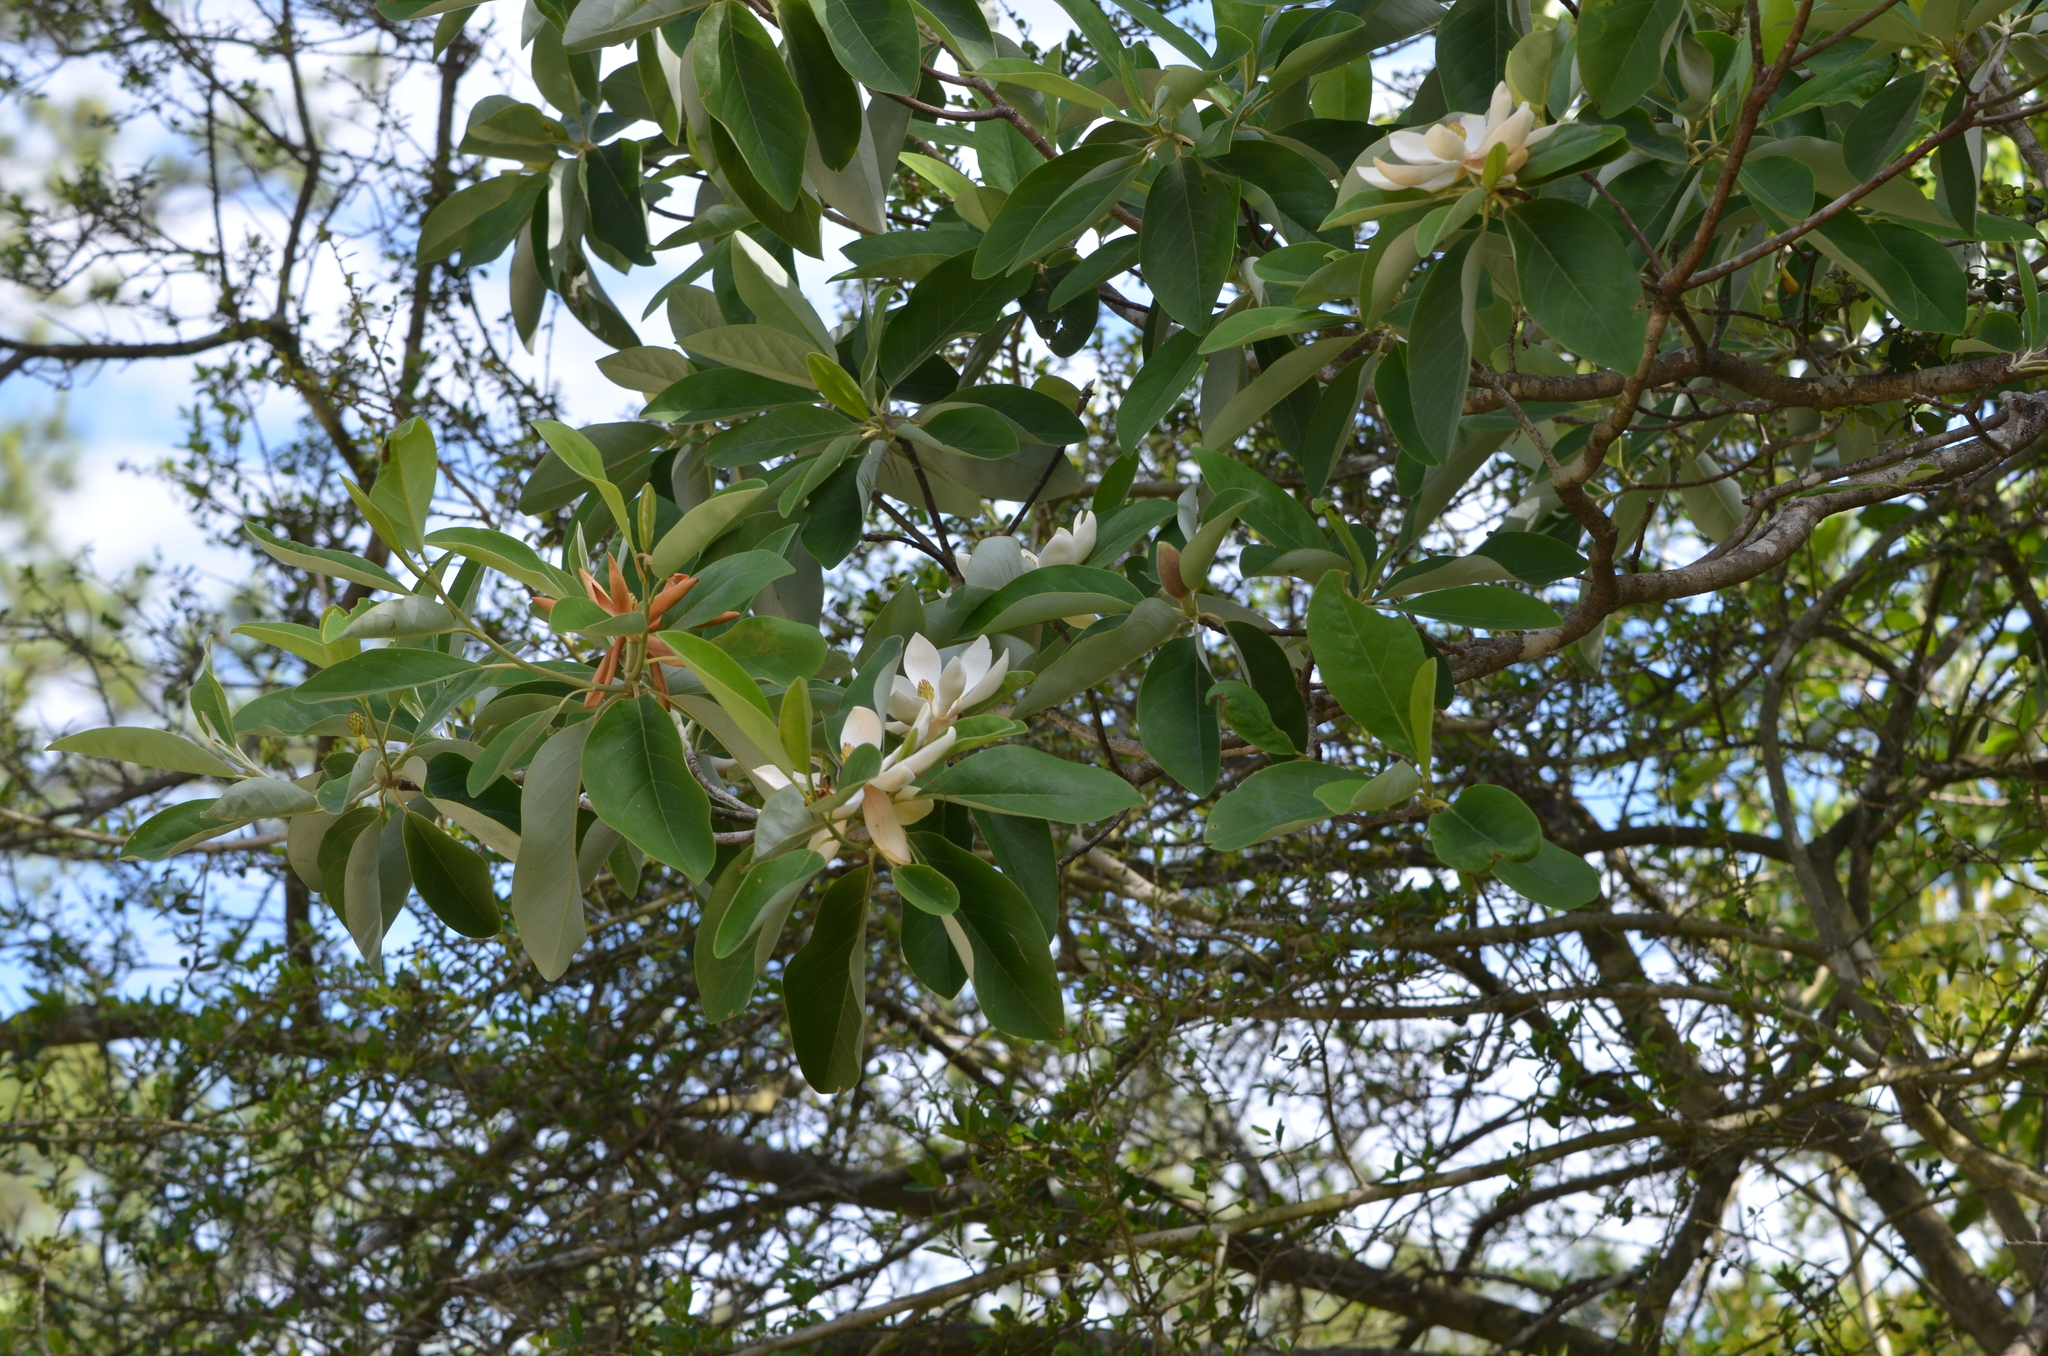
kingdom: Plantae
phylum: Tracheophyta
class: Magnoliopsida
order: Magnoliales
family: Magnoliaceae
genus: Magnolia
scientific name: Magnolia virginiana
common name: Swamp bay
